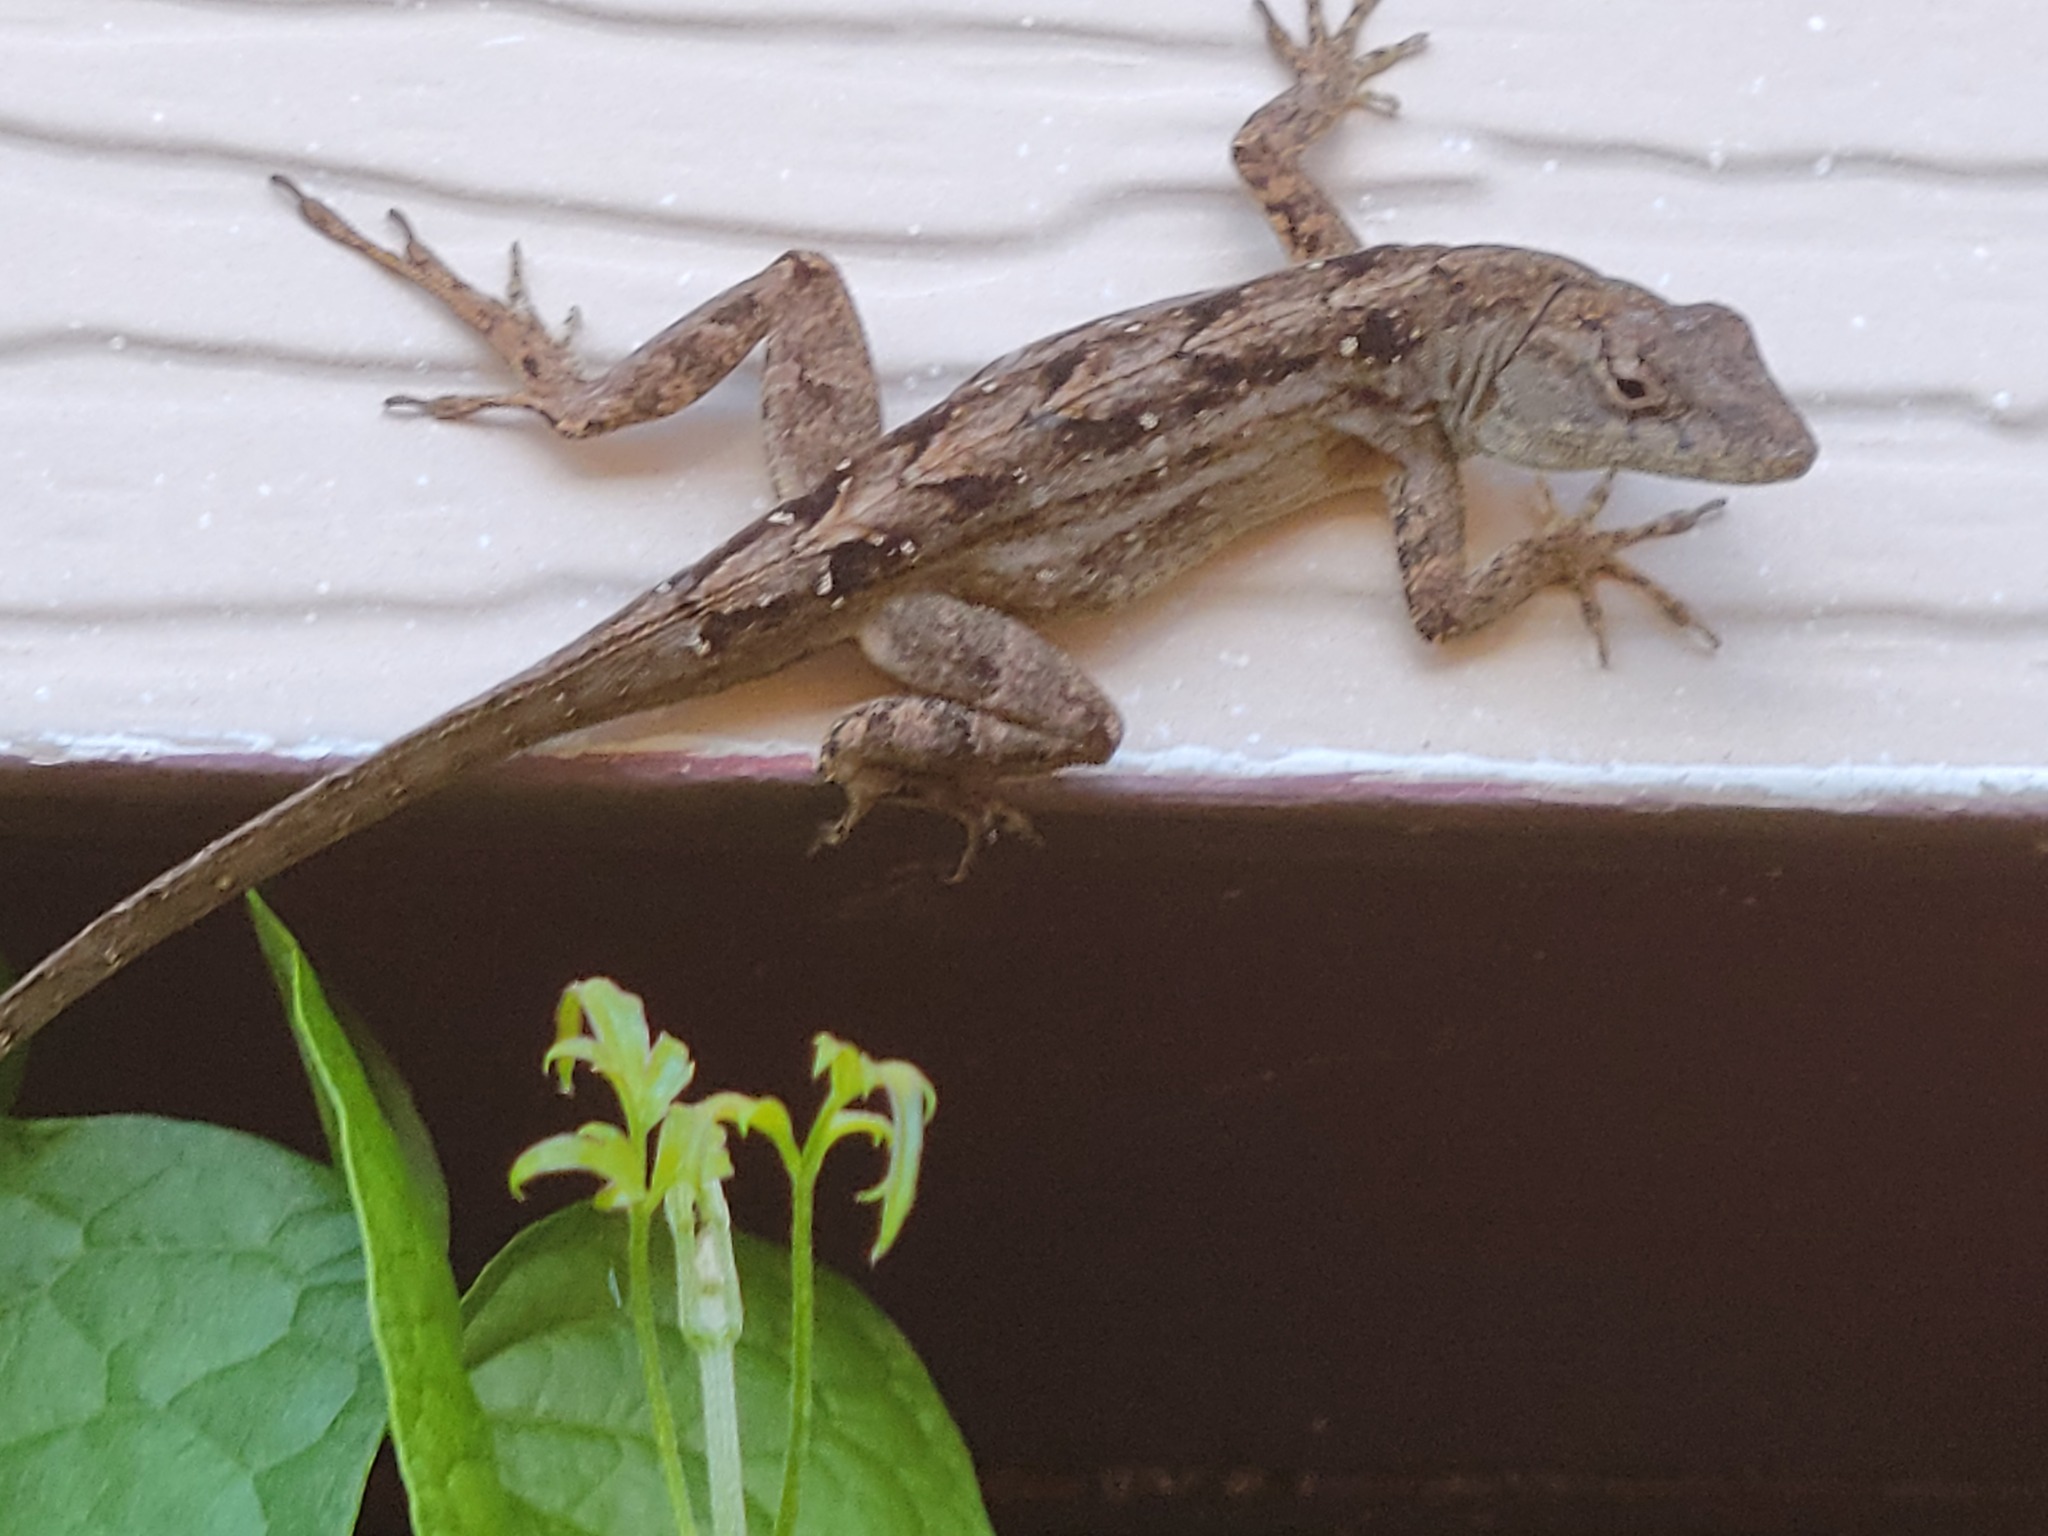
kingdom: Animalia
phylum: Chordata
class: Squamata
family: Dactyloidae
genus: Anolis
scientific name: Anolis sagrei
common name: Brown anole
